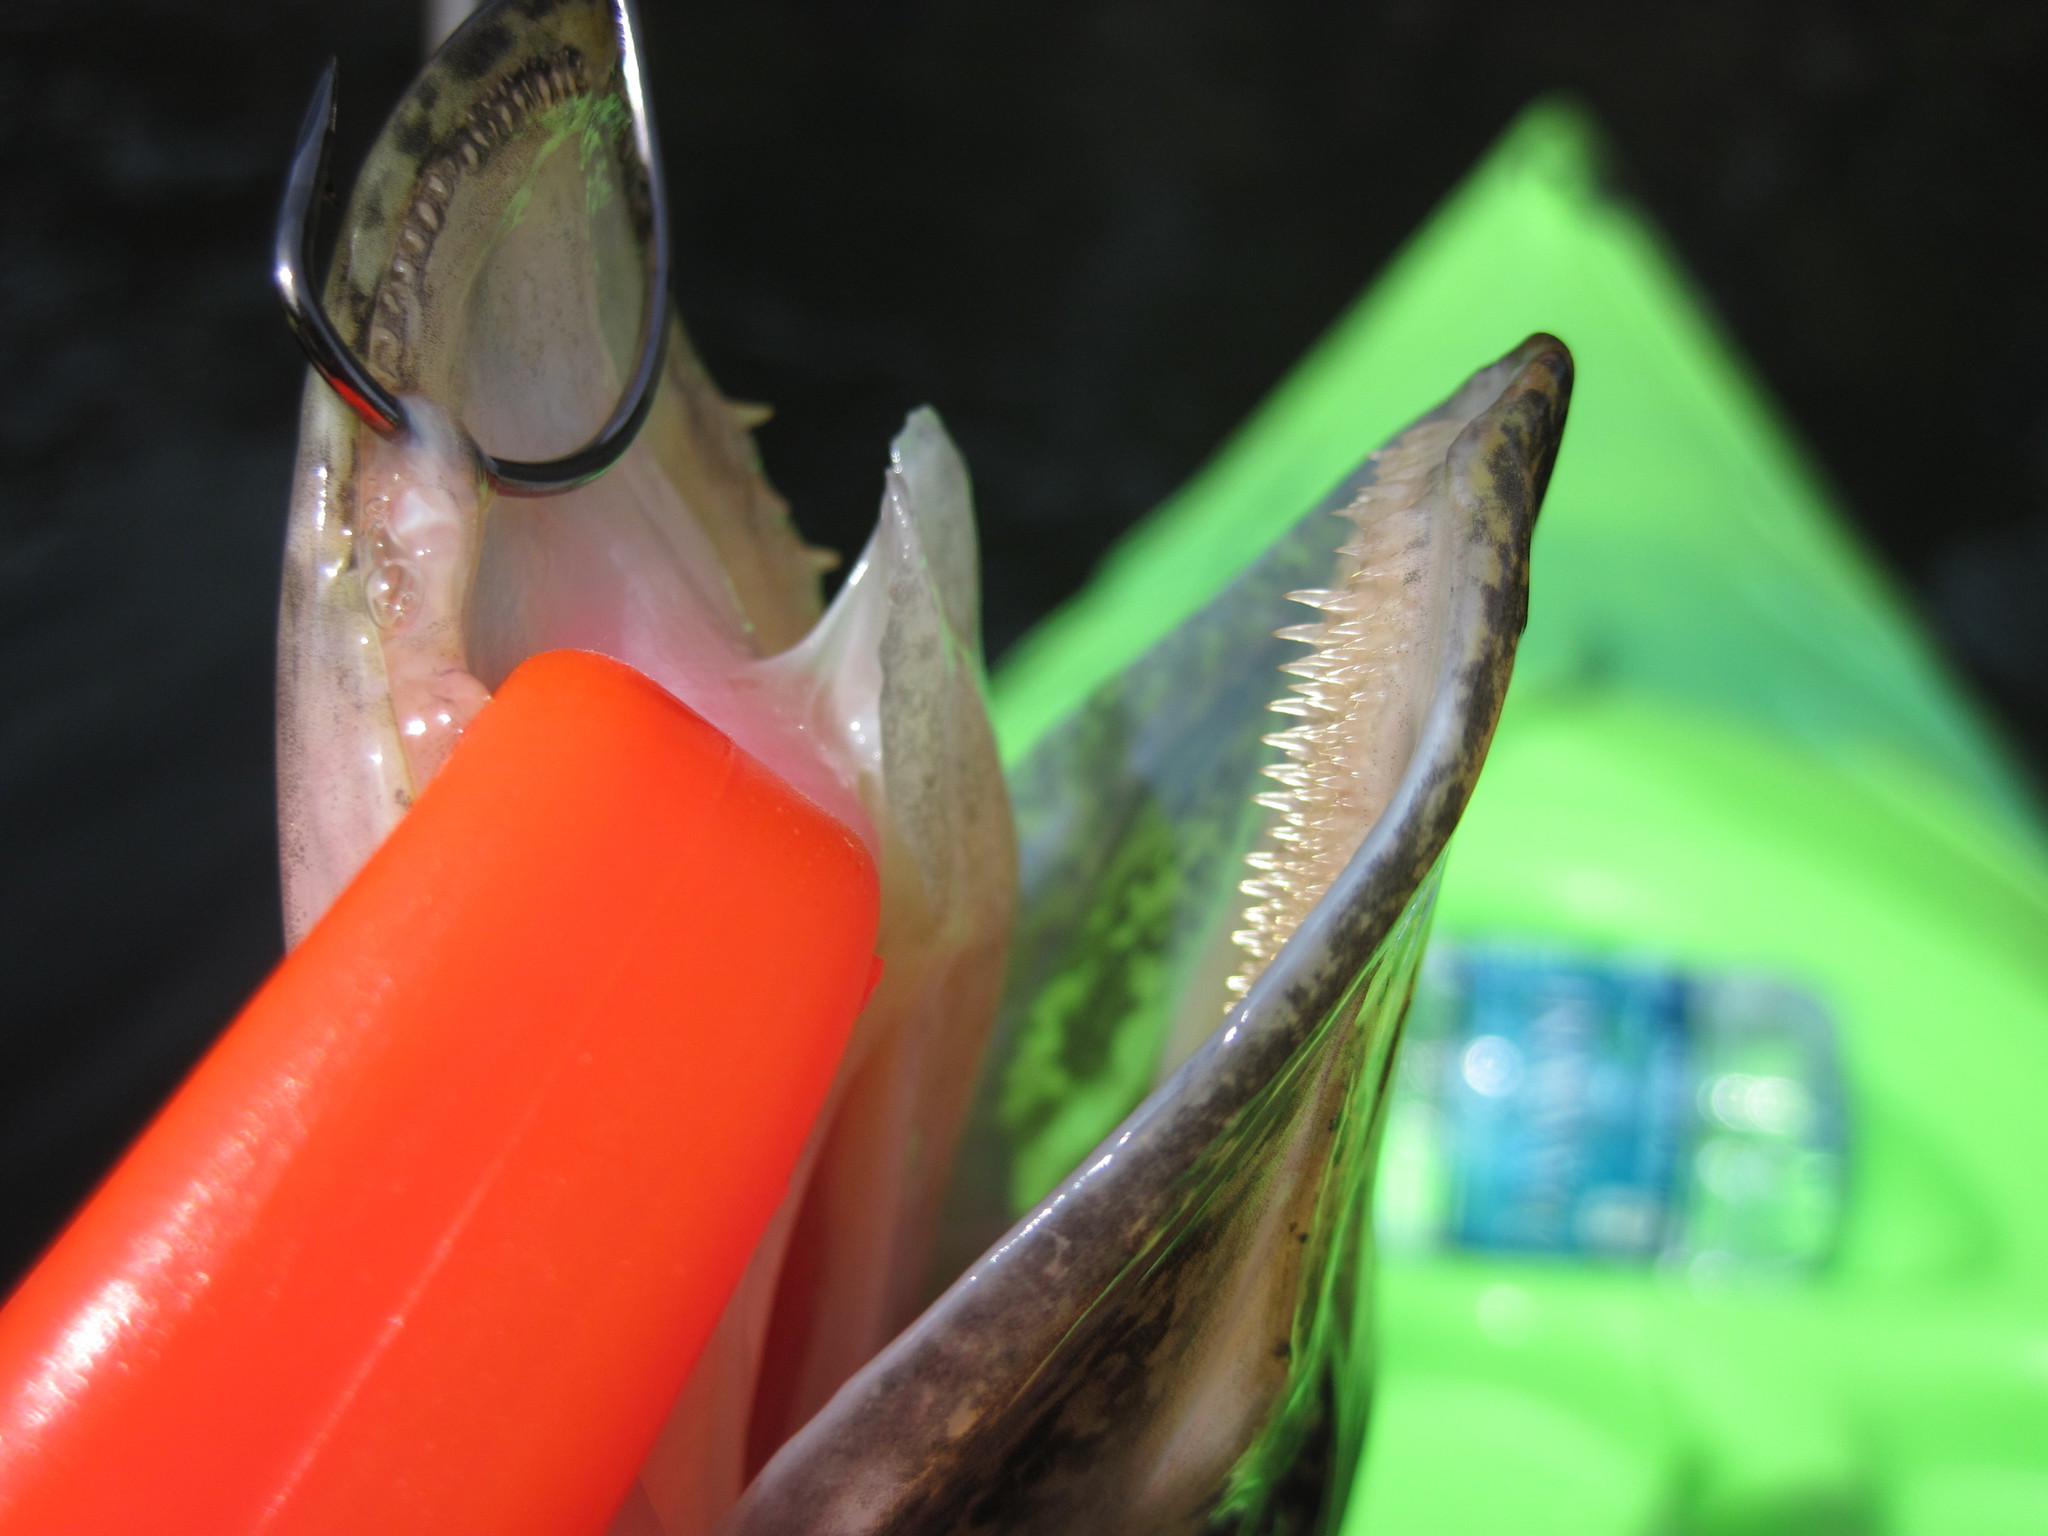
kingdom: Animalia
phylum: Chordata
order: Esociformes
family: Esocidae
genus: Esox
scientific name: Esox niger
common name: Chain pickerel
